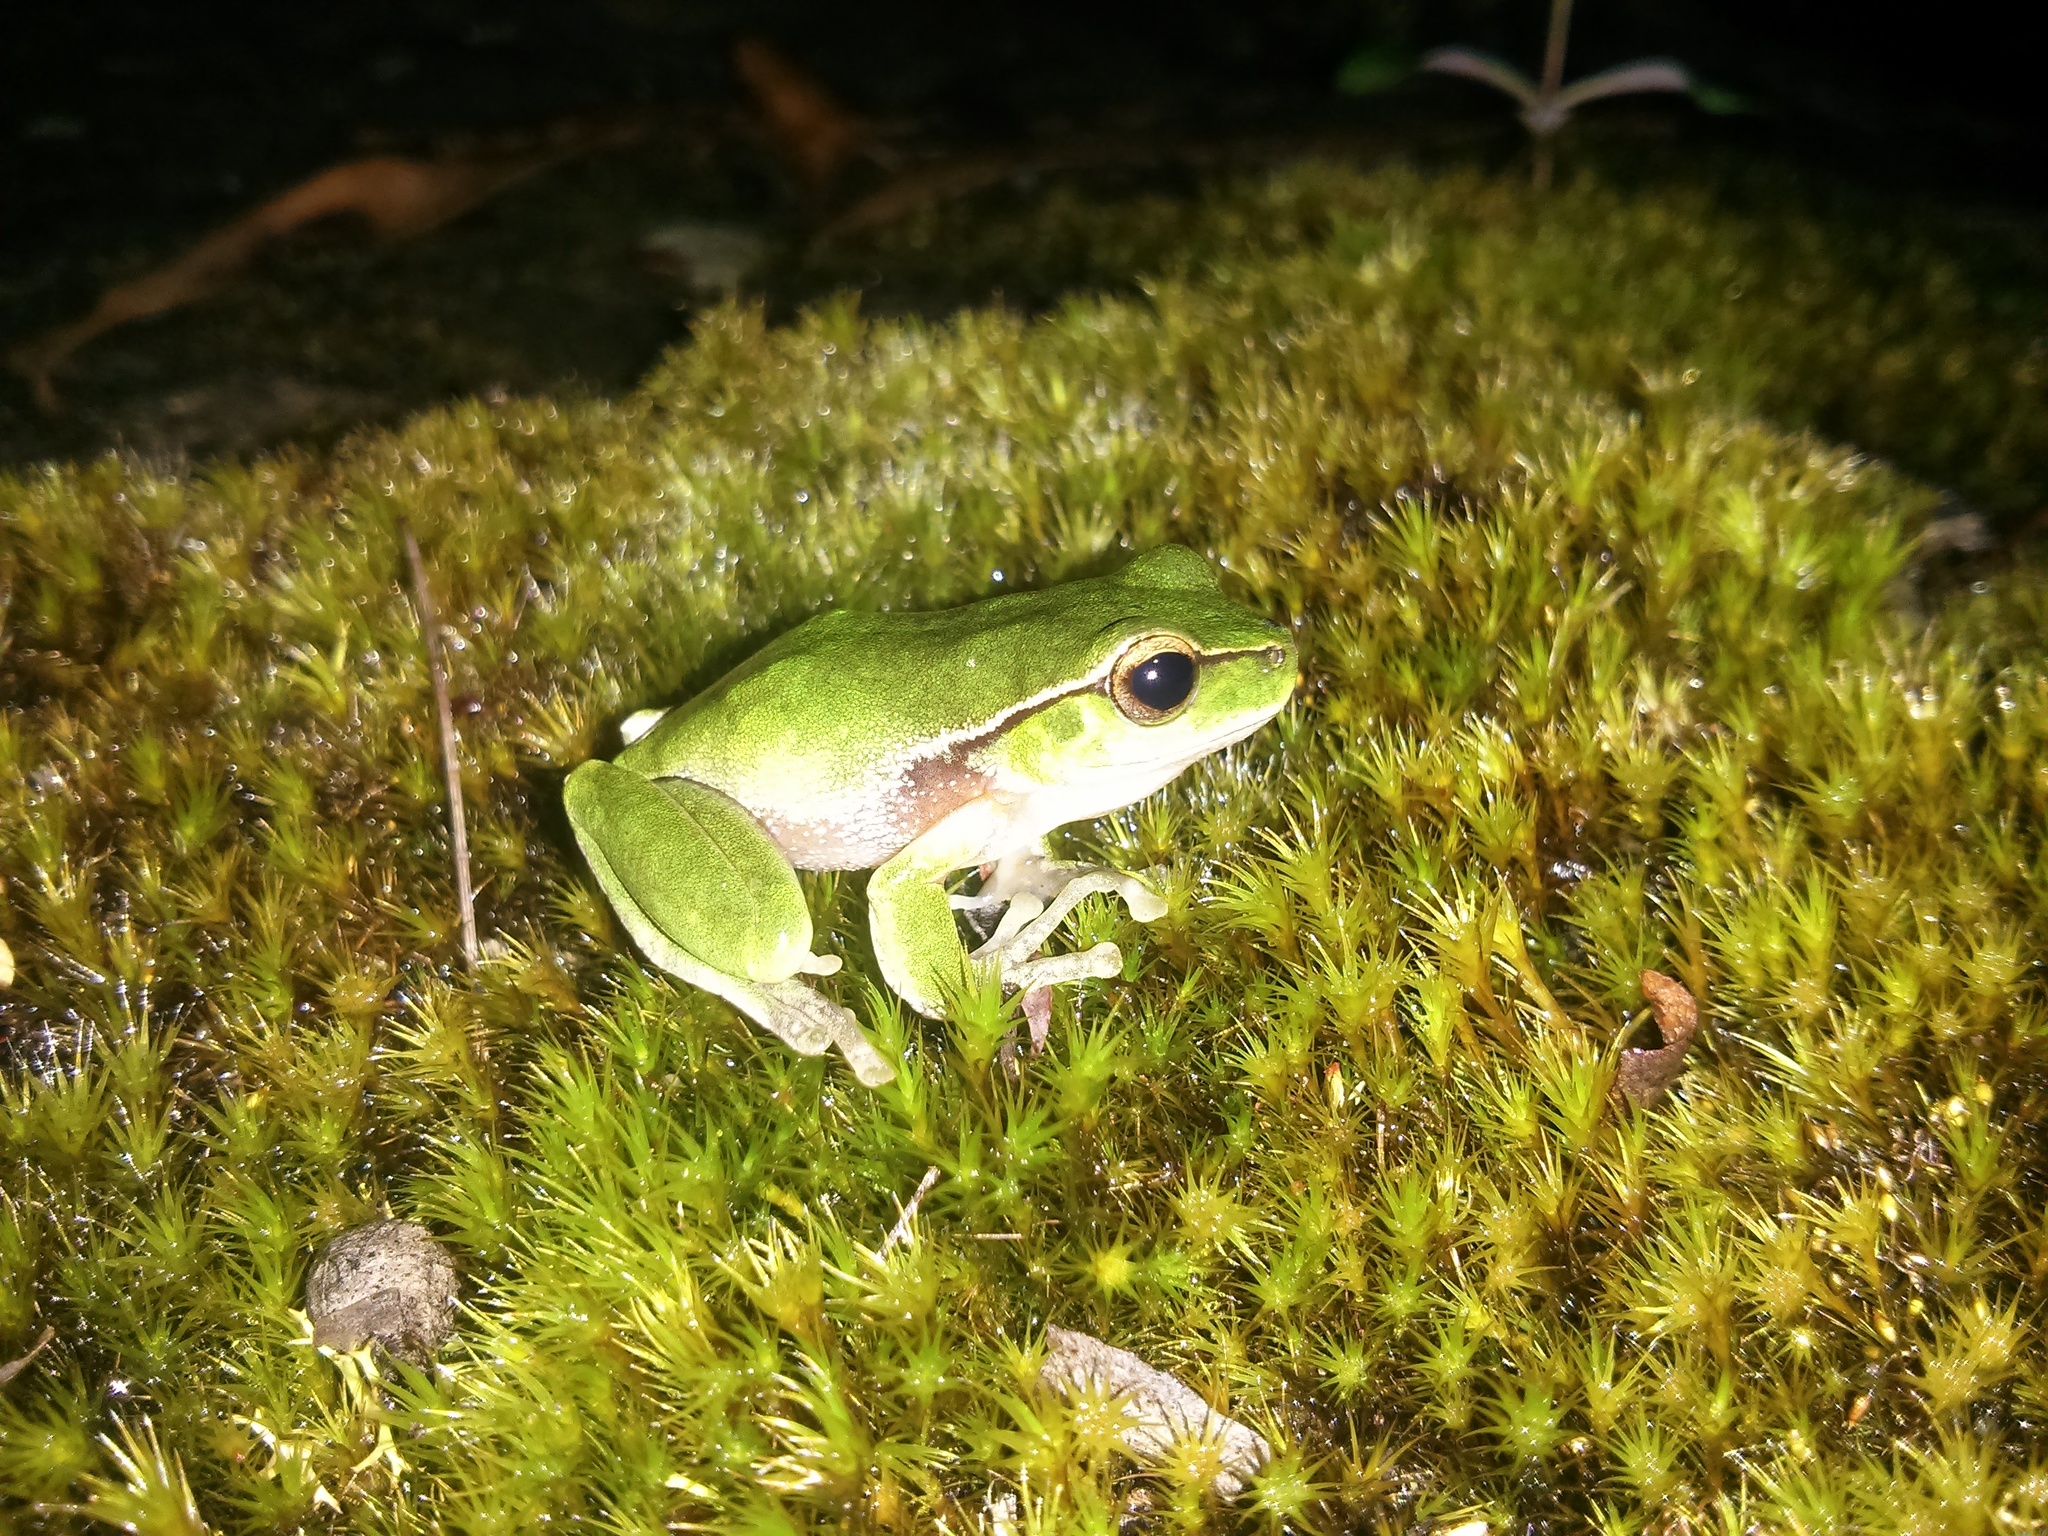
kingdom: Animalia
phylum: Chordata
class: Amphibia
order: Anura
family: Pelodryadidae
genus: Ranoidea
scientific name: Ranoidea phyllochroa
